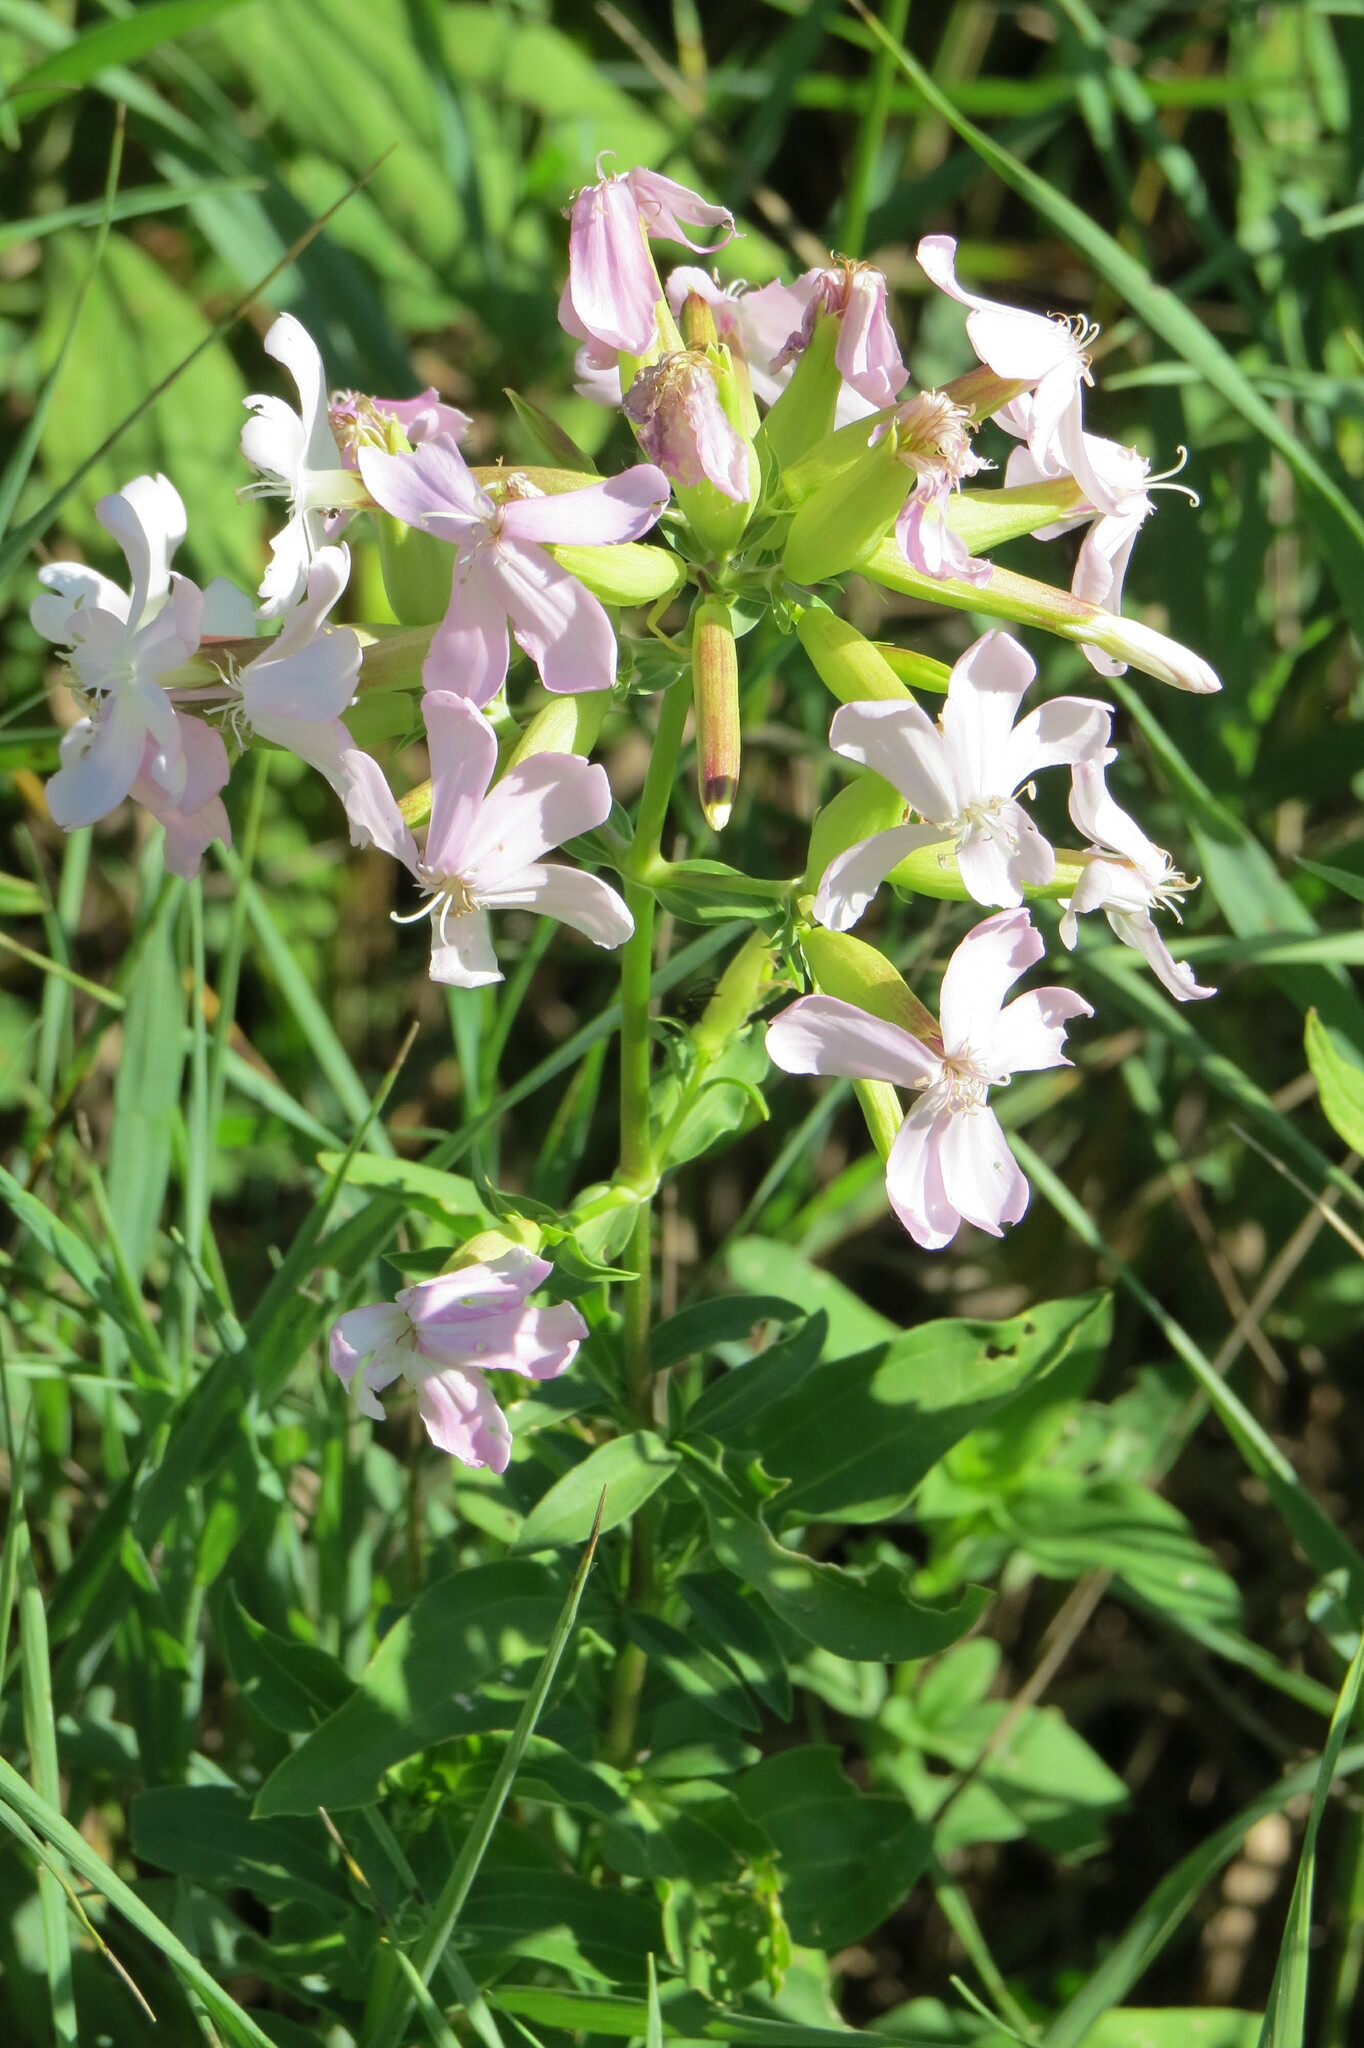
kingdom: Plantae
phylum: Tracheophyta
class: Magnoliopsida
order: Caryophyllales
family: Caryophyllaceae
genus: Saponaria
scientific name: Saponaria officinalis
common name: Soapwort
